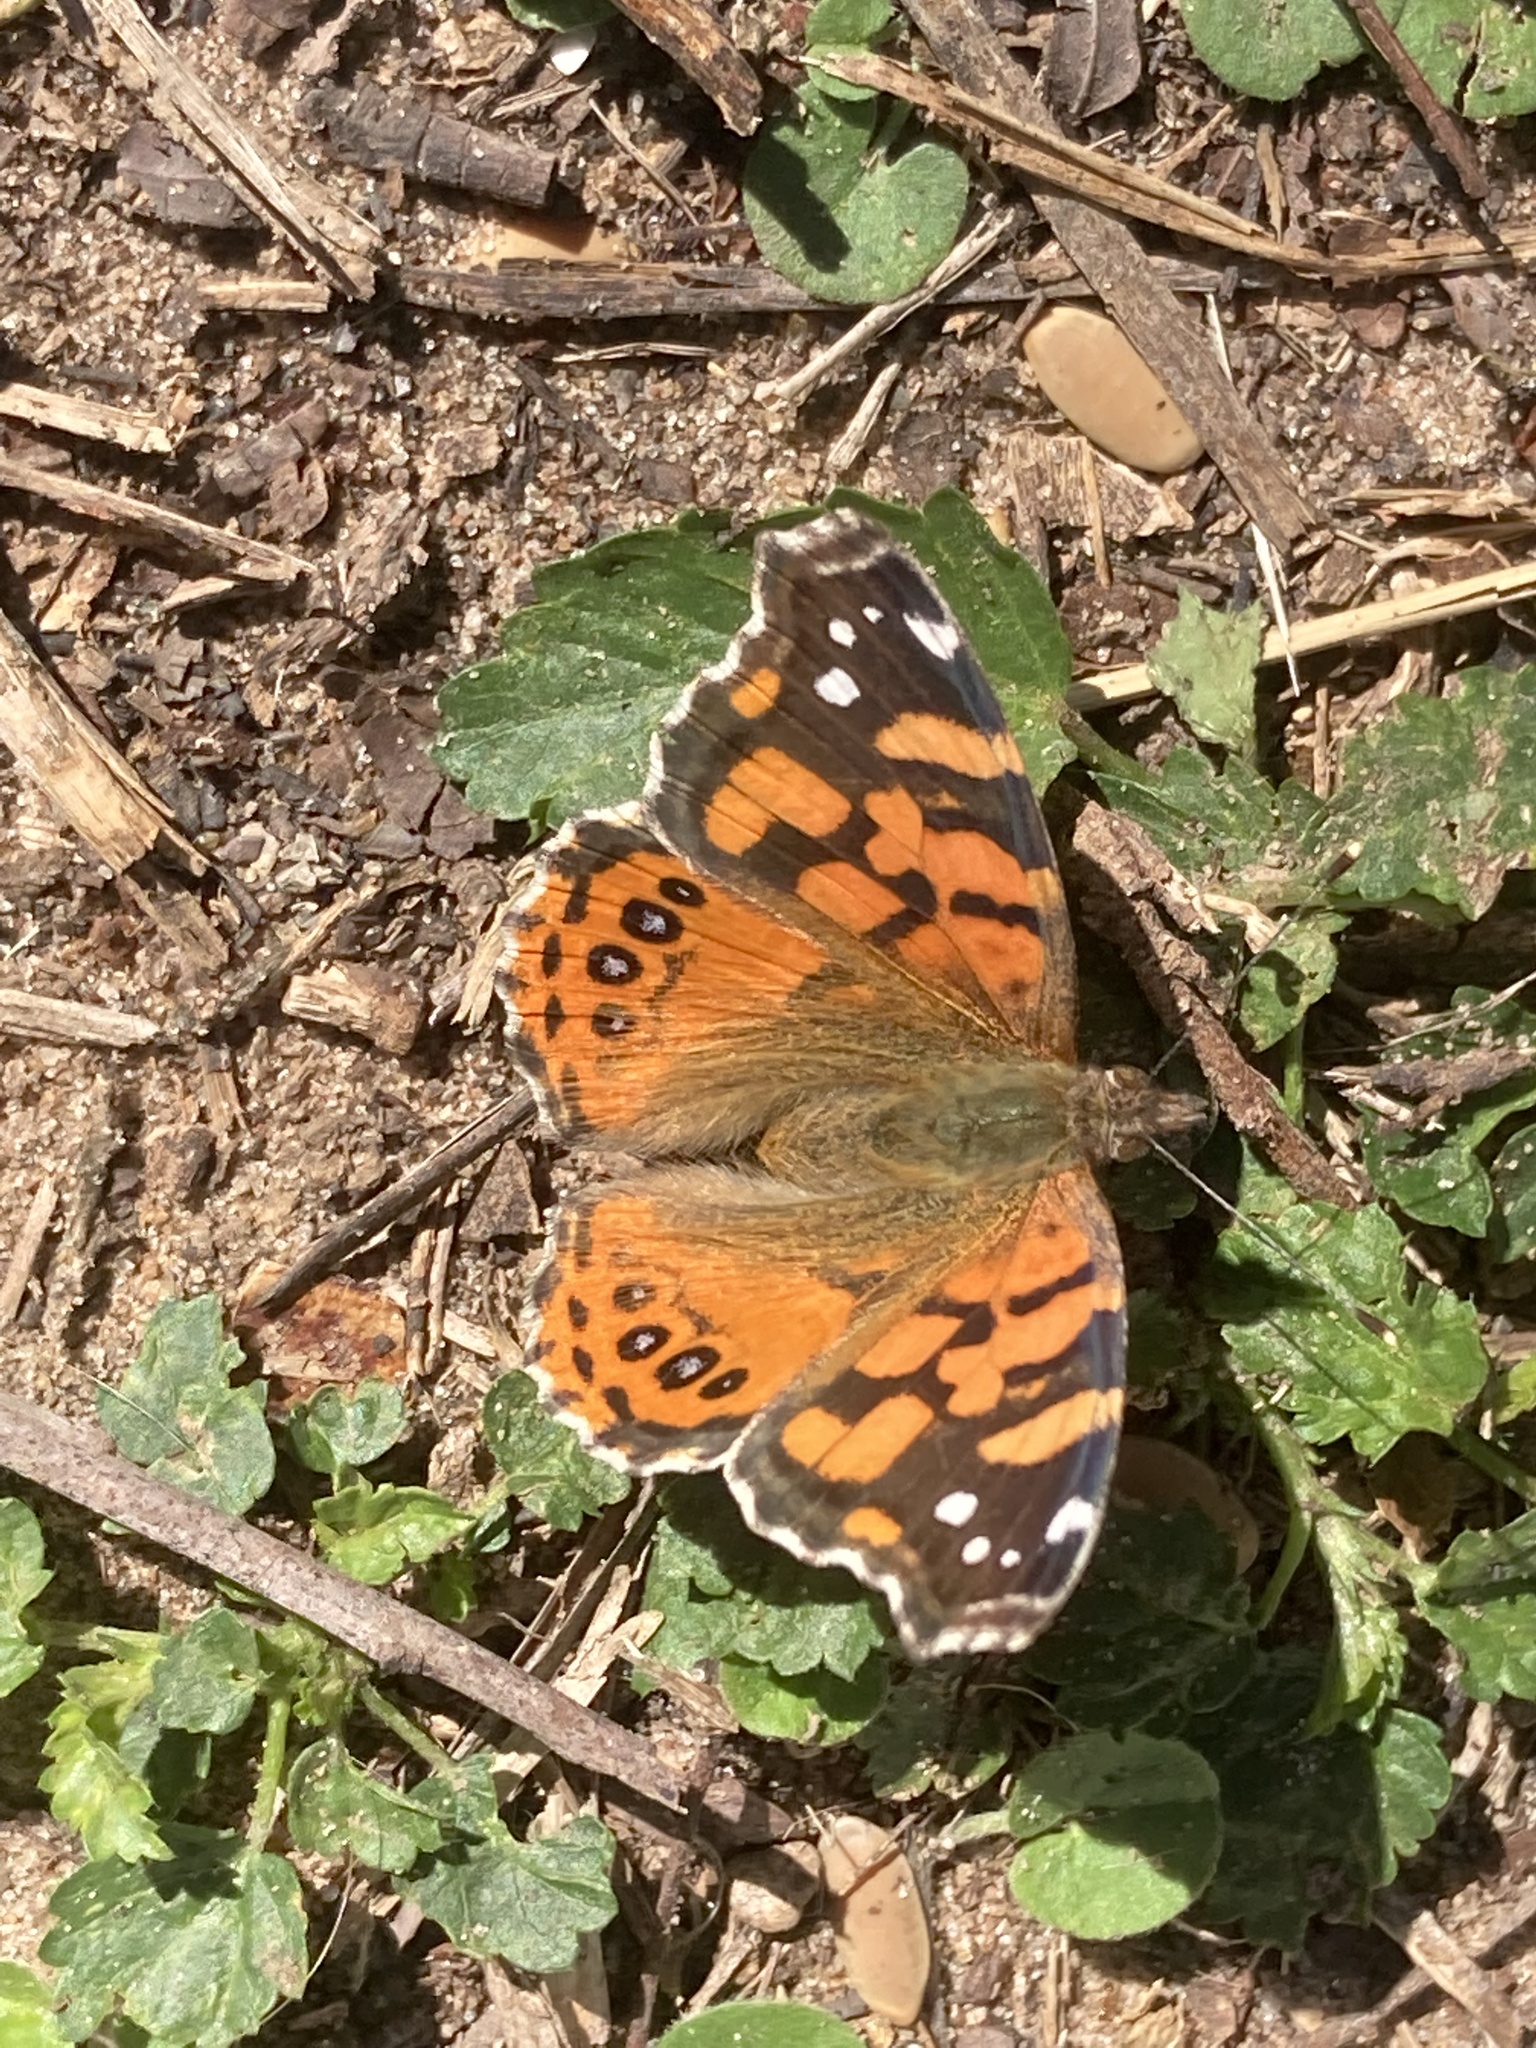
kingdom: Animalia
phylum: Arthropoda
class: Insecta
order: Lepidoptera
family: Nymphalidae
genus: Vanessa
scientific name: Vanessa carye
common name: Subtropical lady
